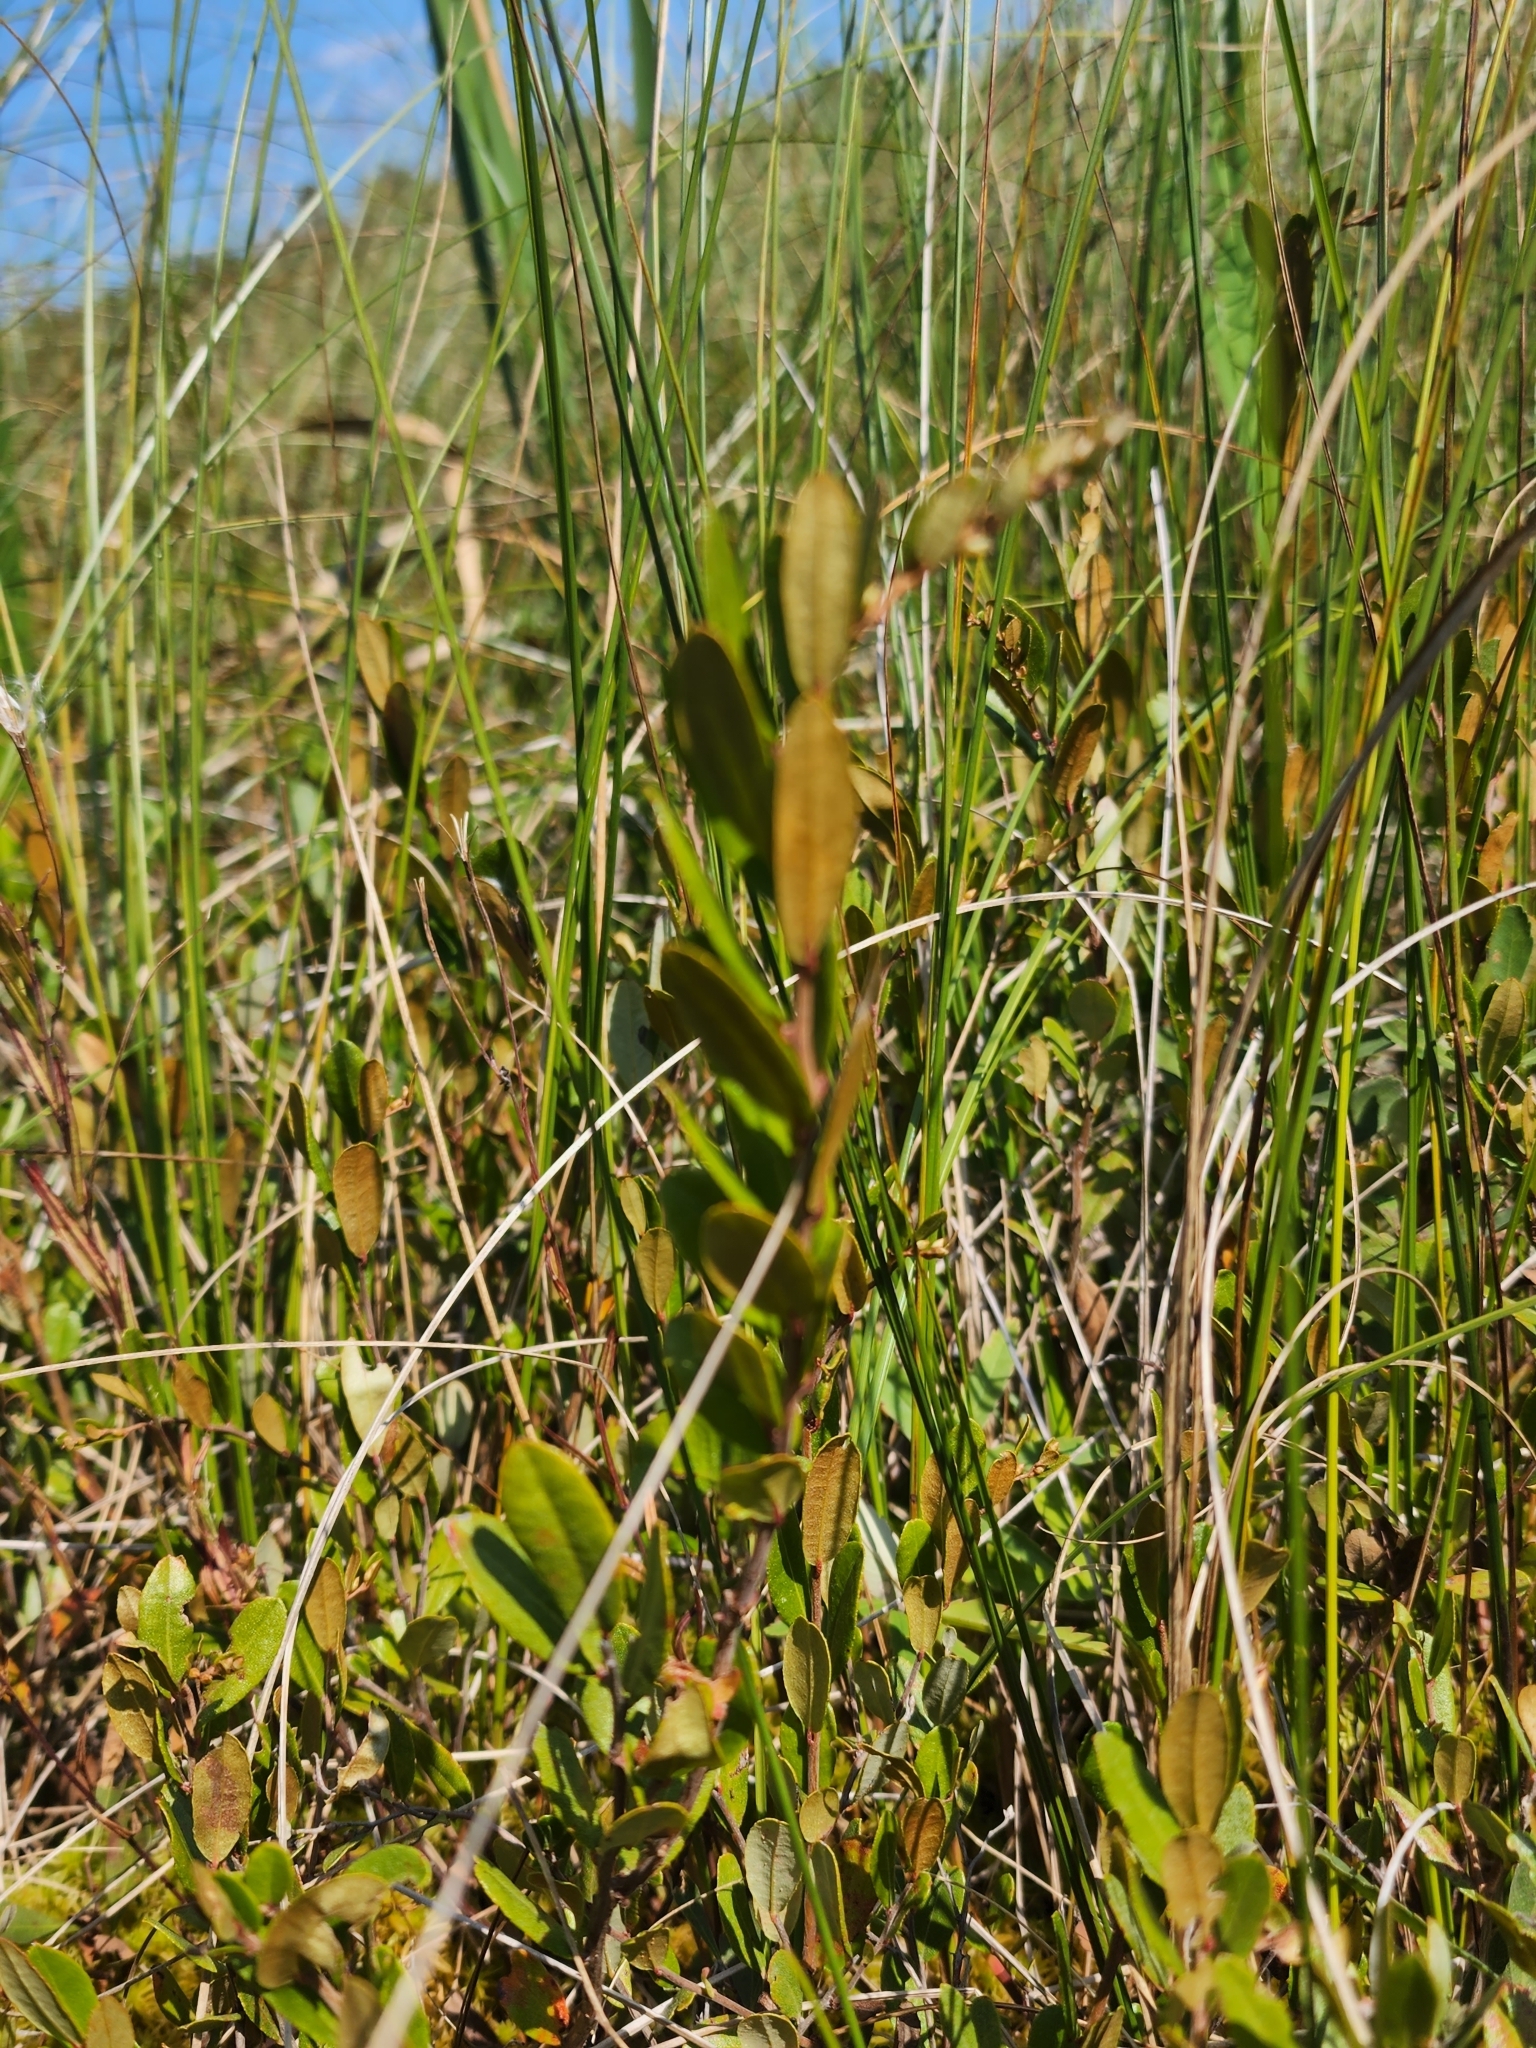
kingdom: Plantae
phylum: Tracheophyta
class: Magnoliopsida
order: Ericales
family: Ericaceae
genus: Chamaedaphne
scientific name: Chamaedaphne calyculata
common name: Leatherleaf
